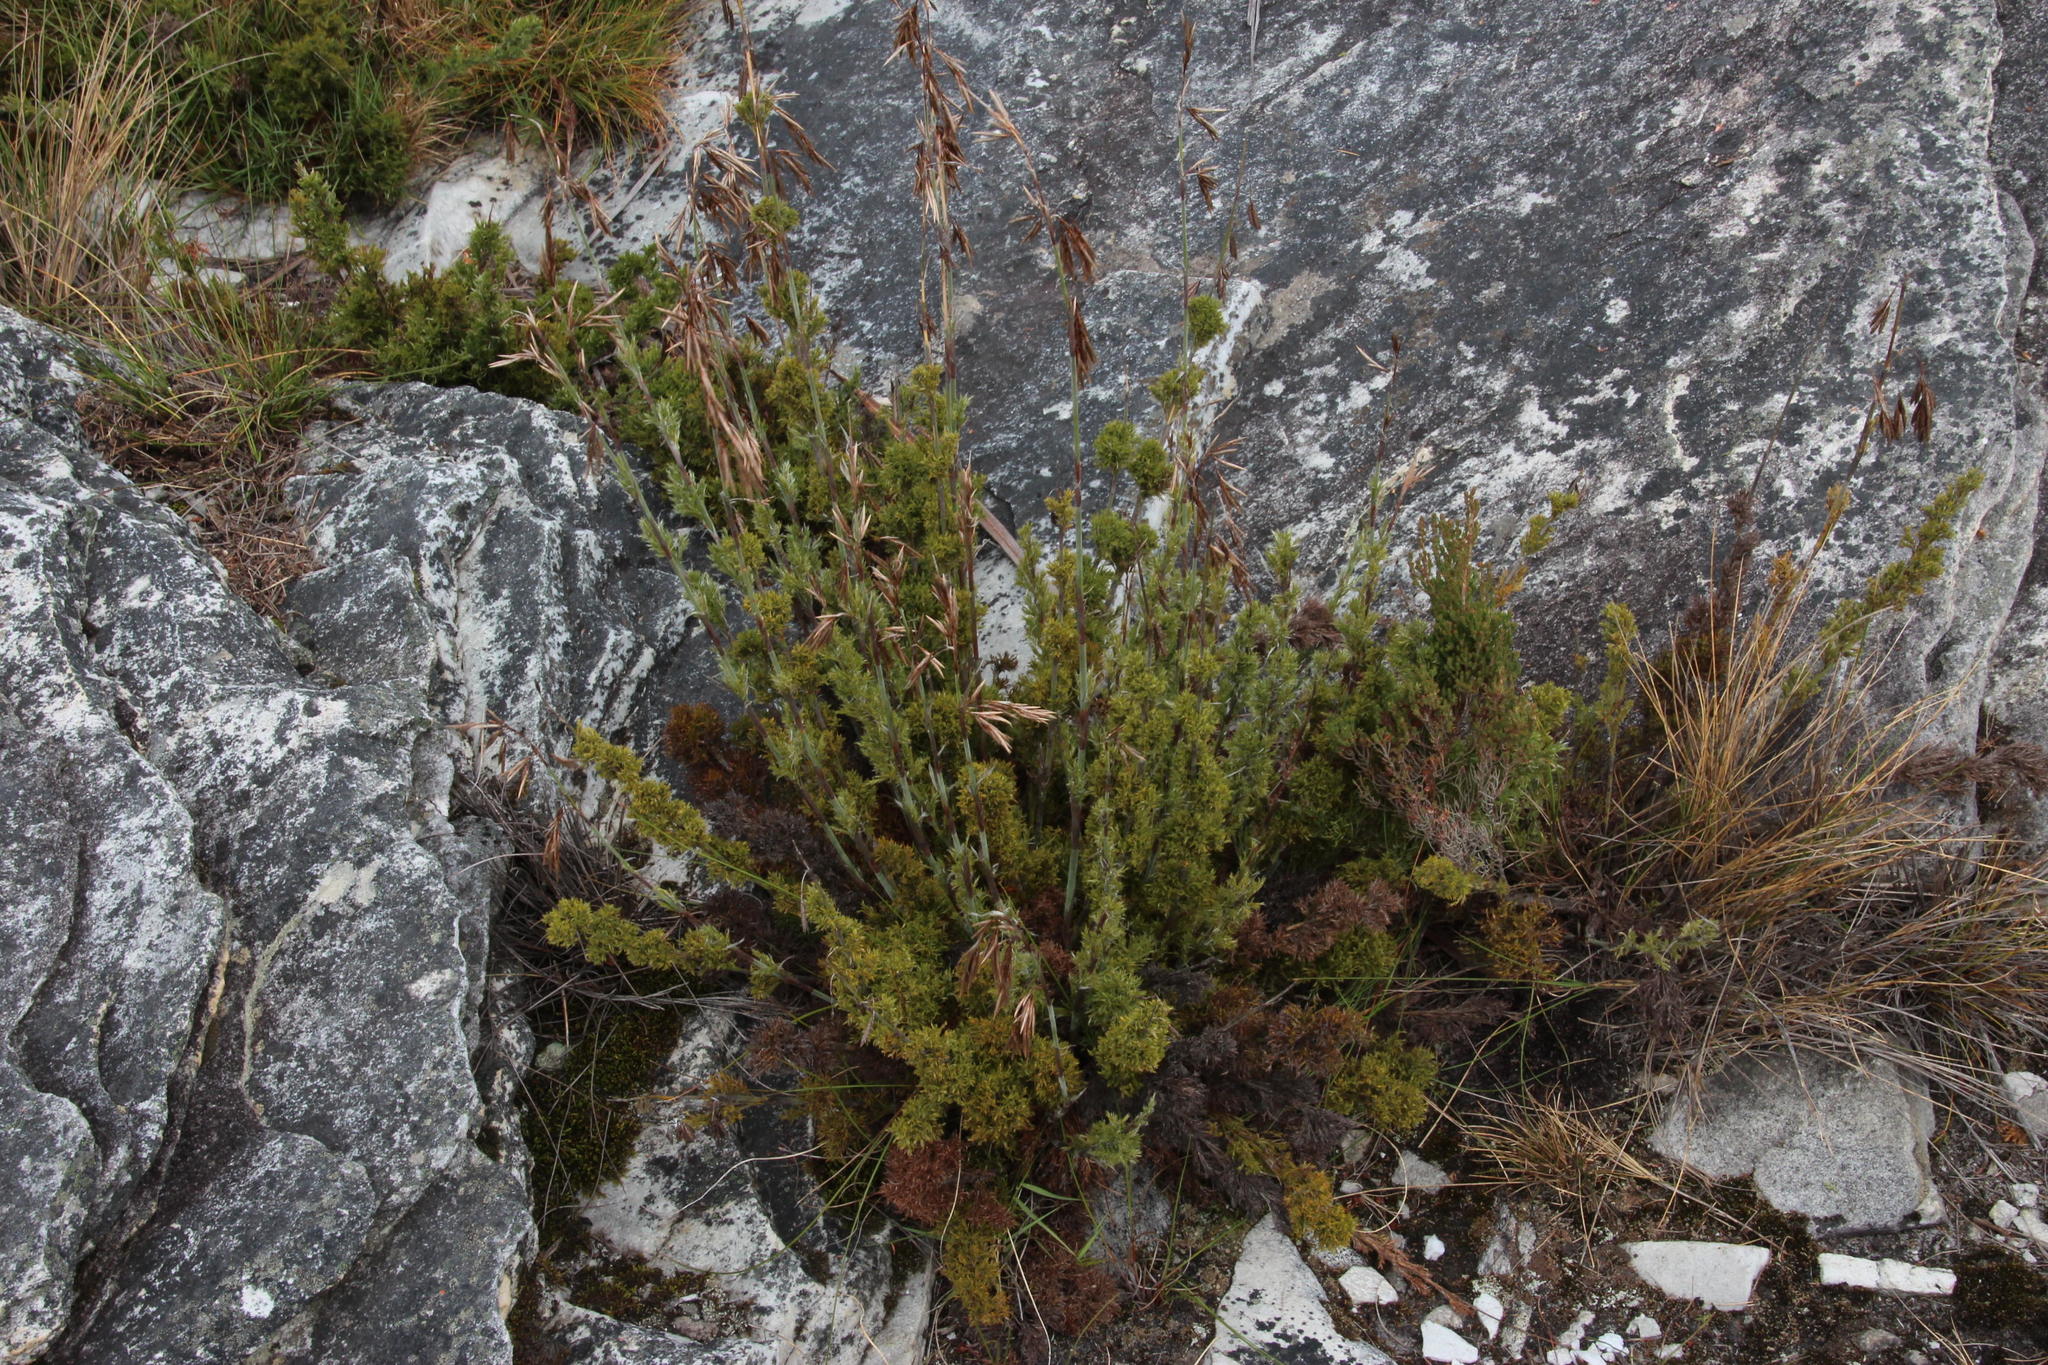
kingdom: Plantae
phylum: Tracheophyta
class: Liliopsida
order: Poales
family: Restionaceae
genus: Thamnochortus
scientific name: Thamnochortus cinereus
